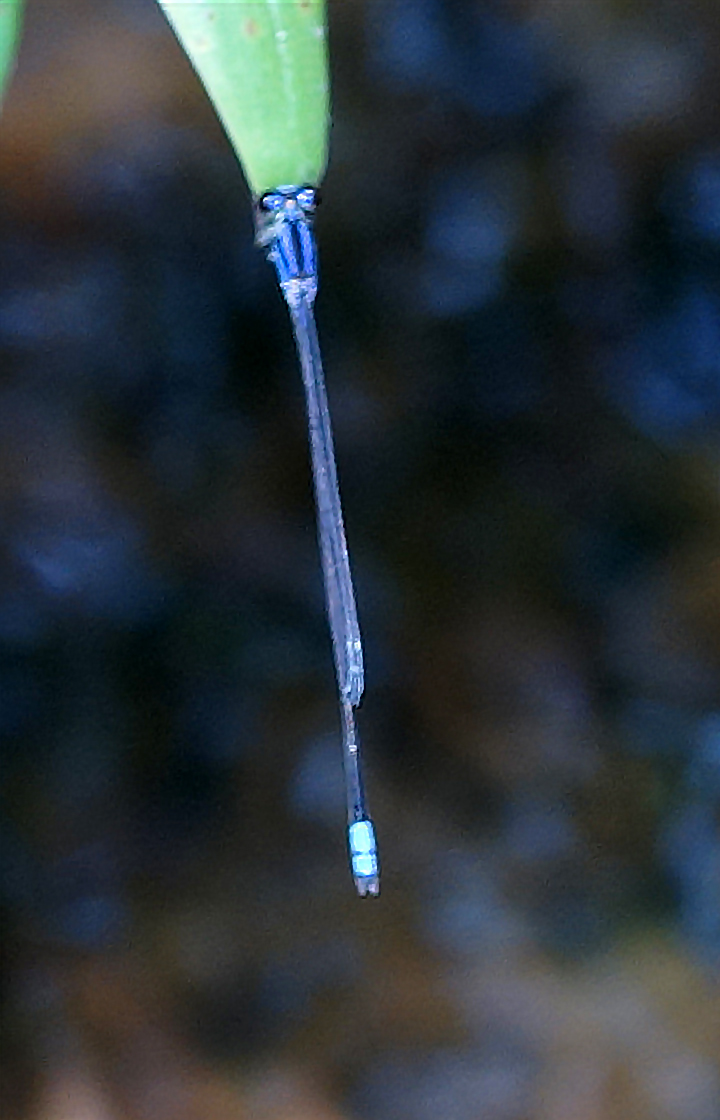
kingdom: Animalia
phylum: Arthropoda
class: Insecta
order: Odonata
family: Coenagrionidae
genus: Archibasis
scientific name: Archibasis viola
